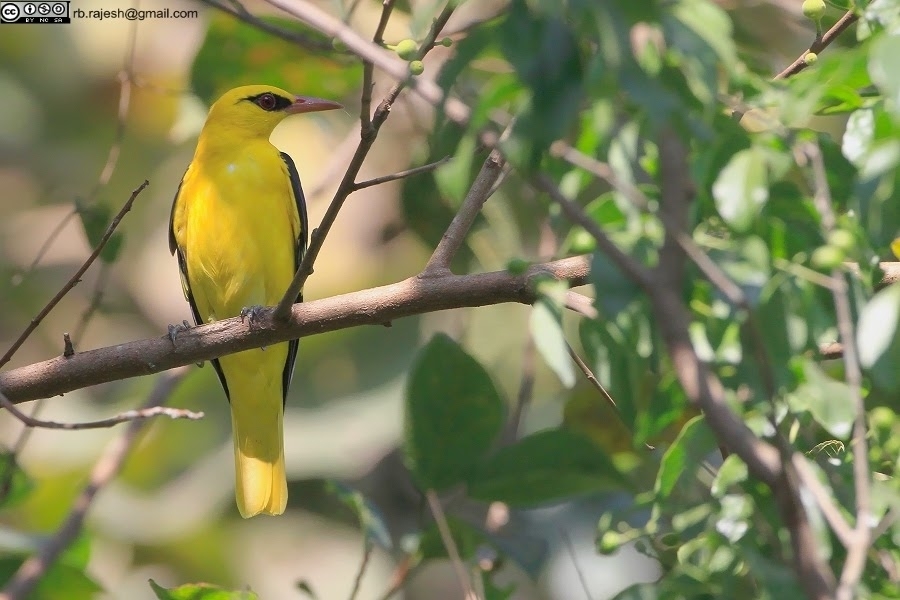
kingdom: Animalia
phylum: Chordata
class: Aves
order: Passeriformes
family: Oriolidae
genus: Oriolus
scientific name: Oriolus kundoo
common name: Indian golden oriole
